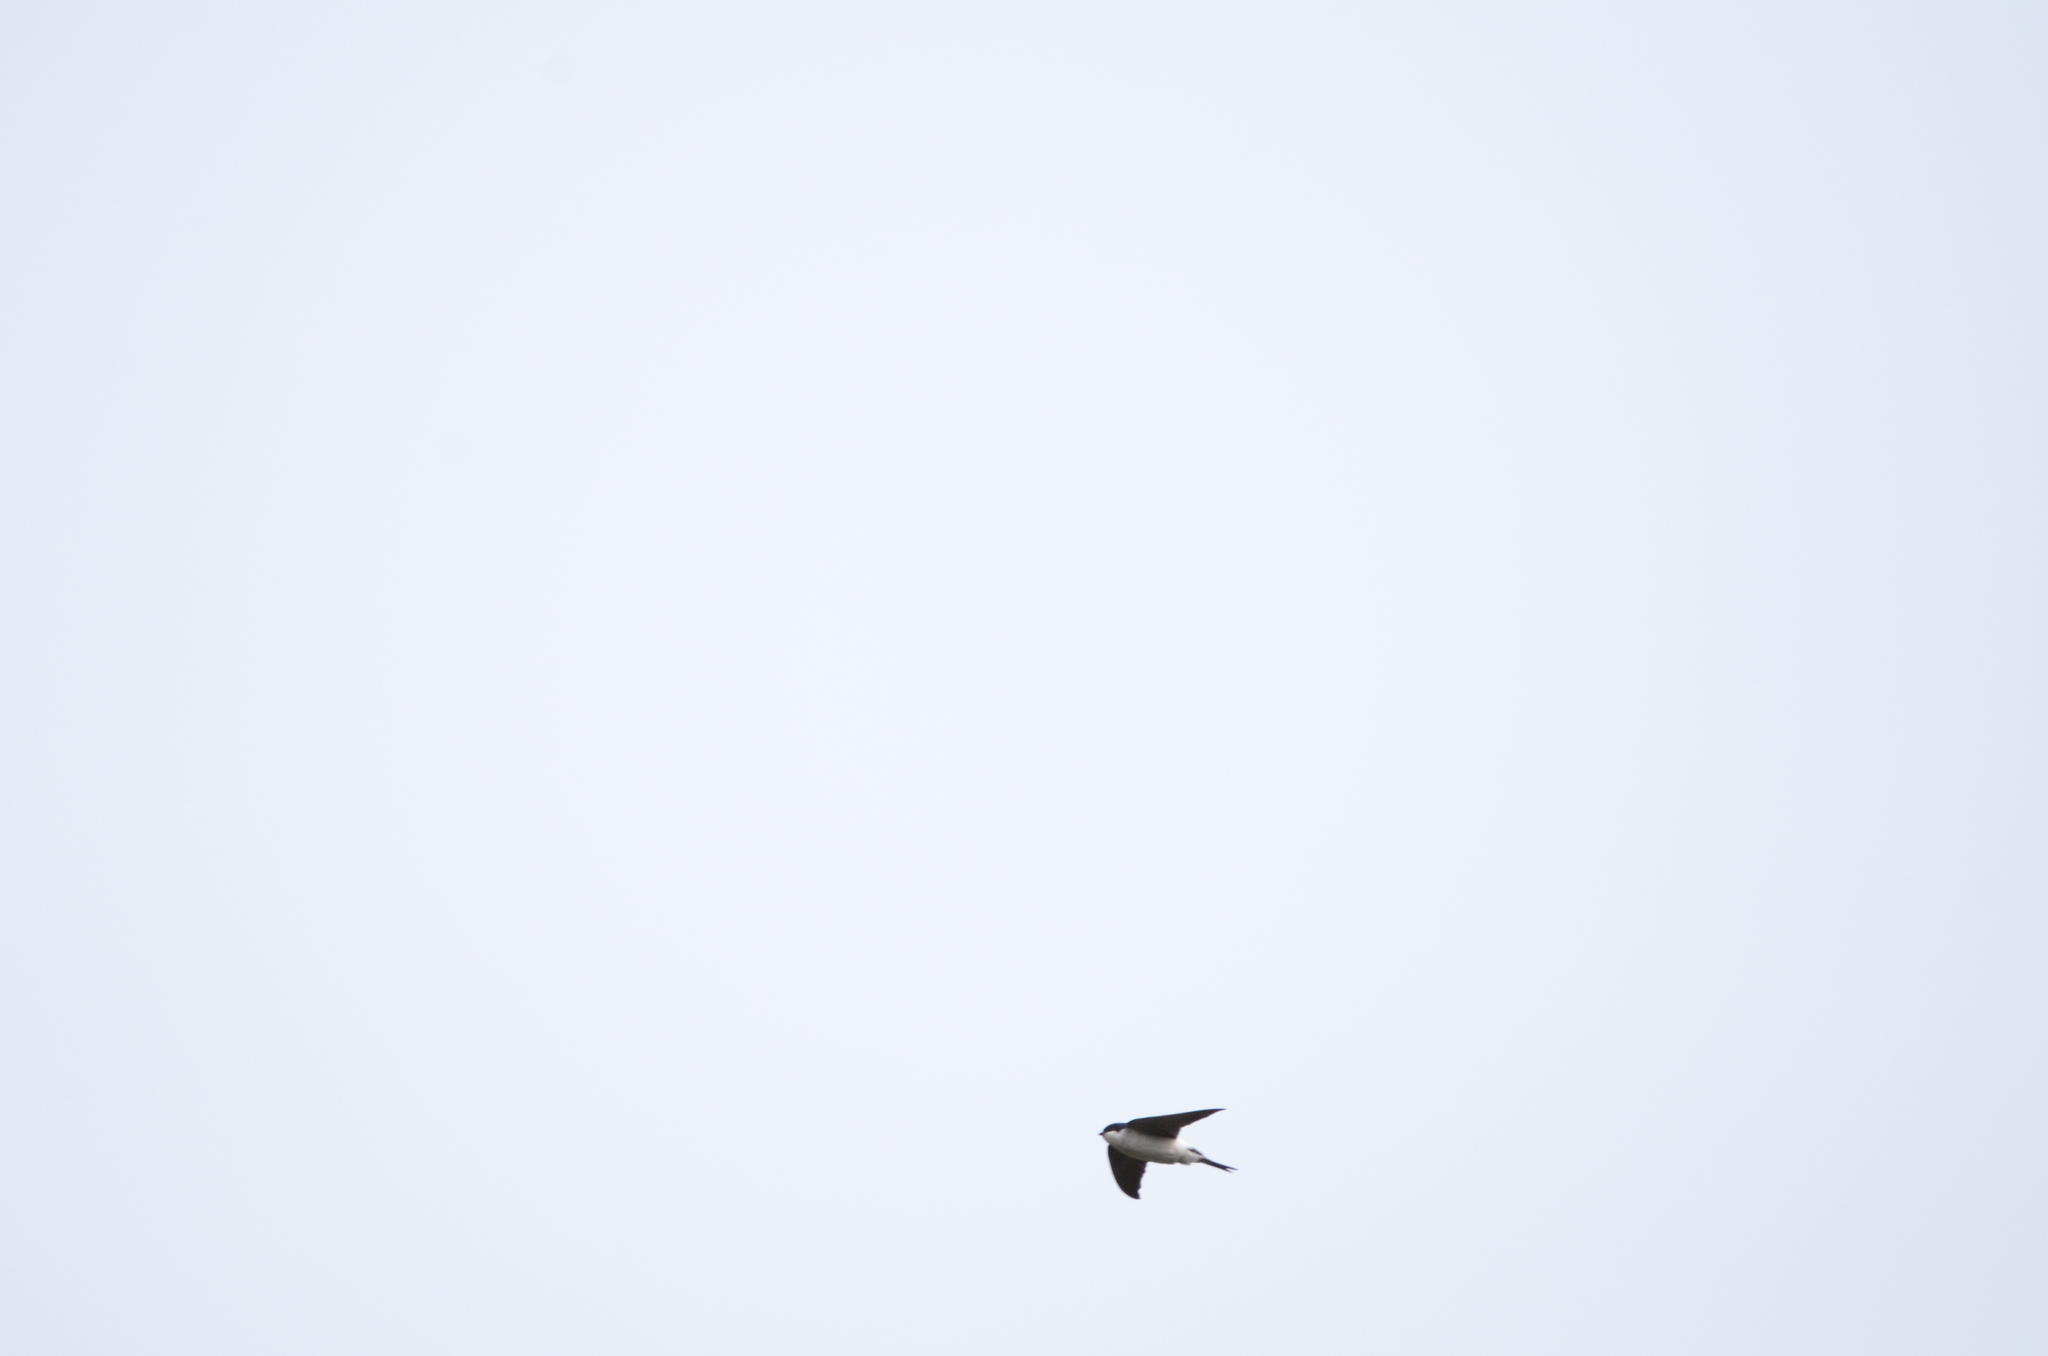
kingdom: Animalia
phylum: Chordata
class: Aves
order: Passeriformes
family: Hirundinidae
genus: Delichon
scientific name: Delichon urbicum
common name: Common house martin
